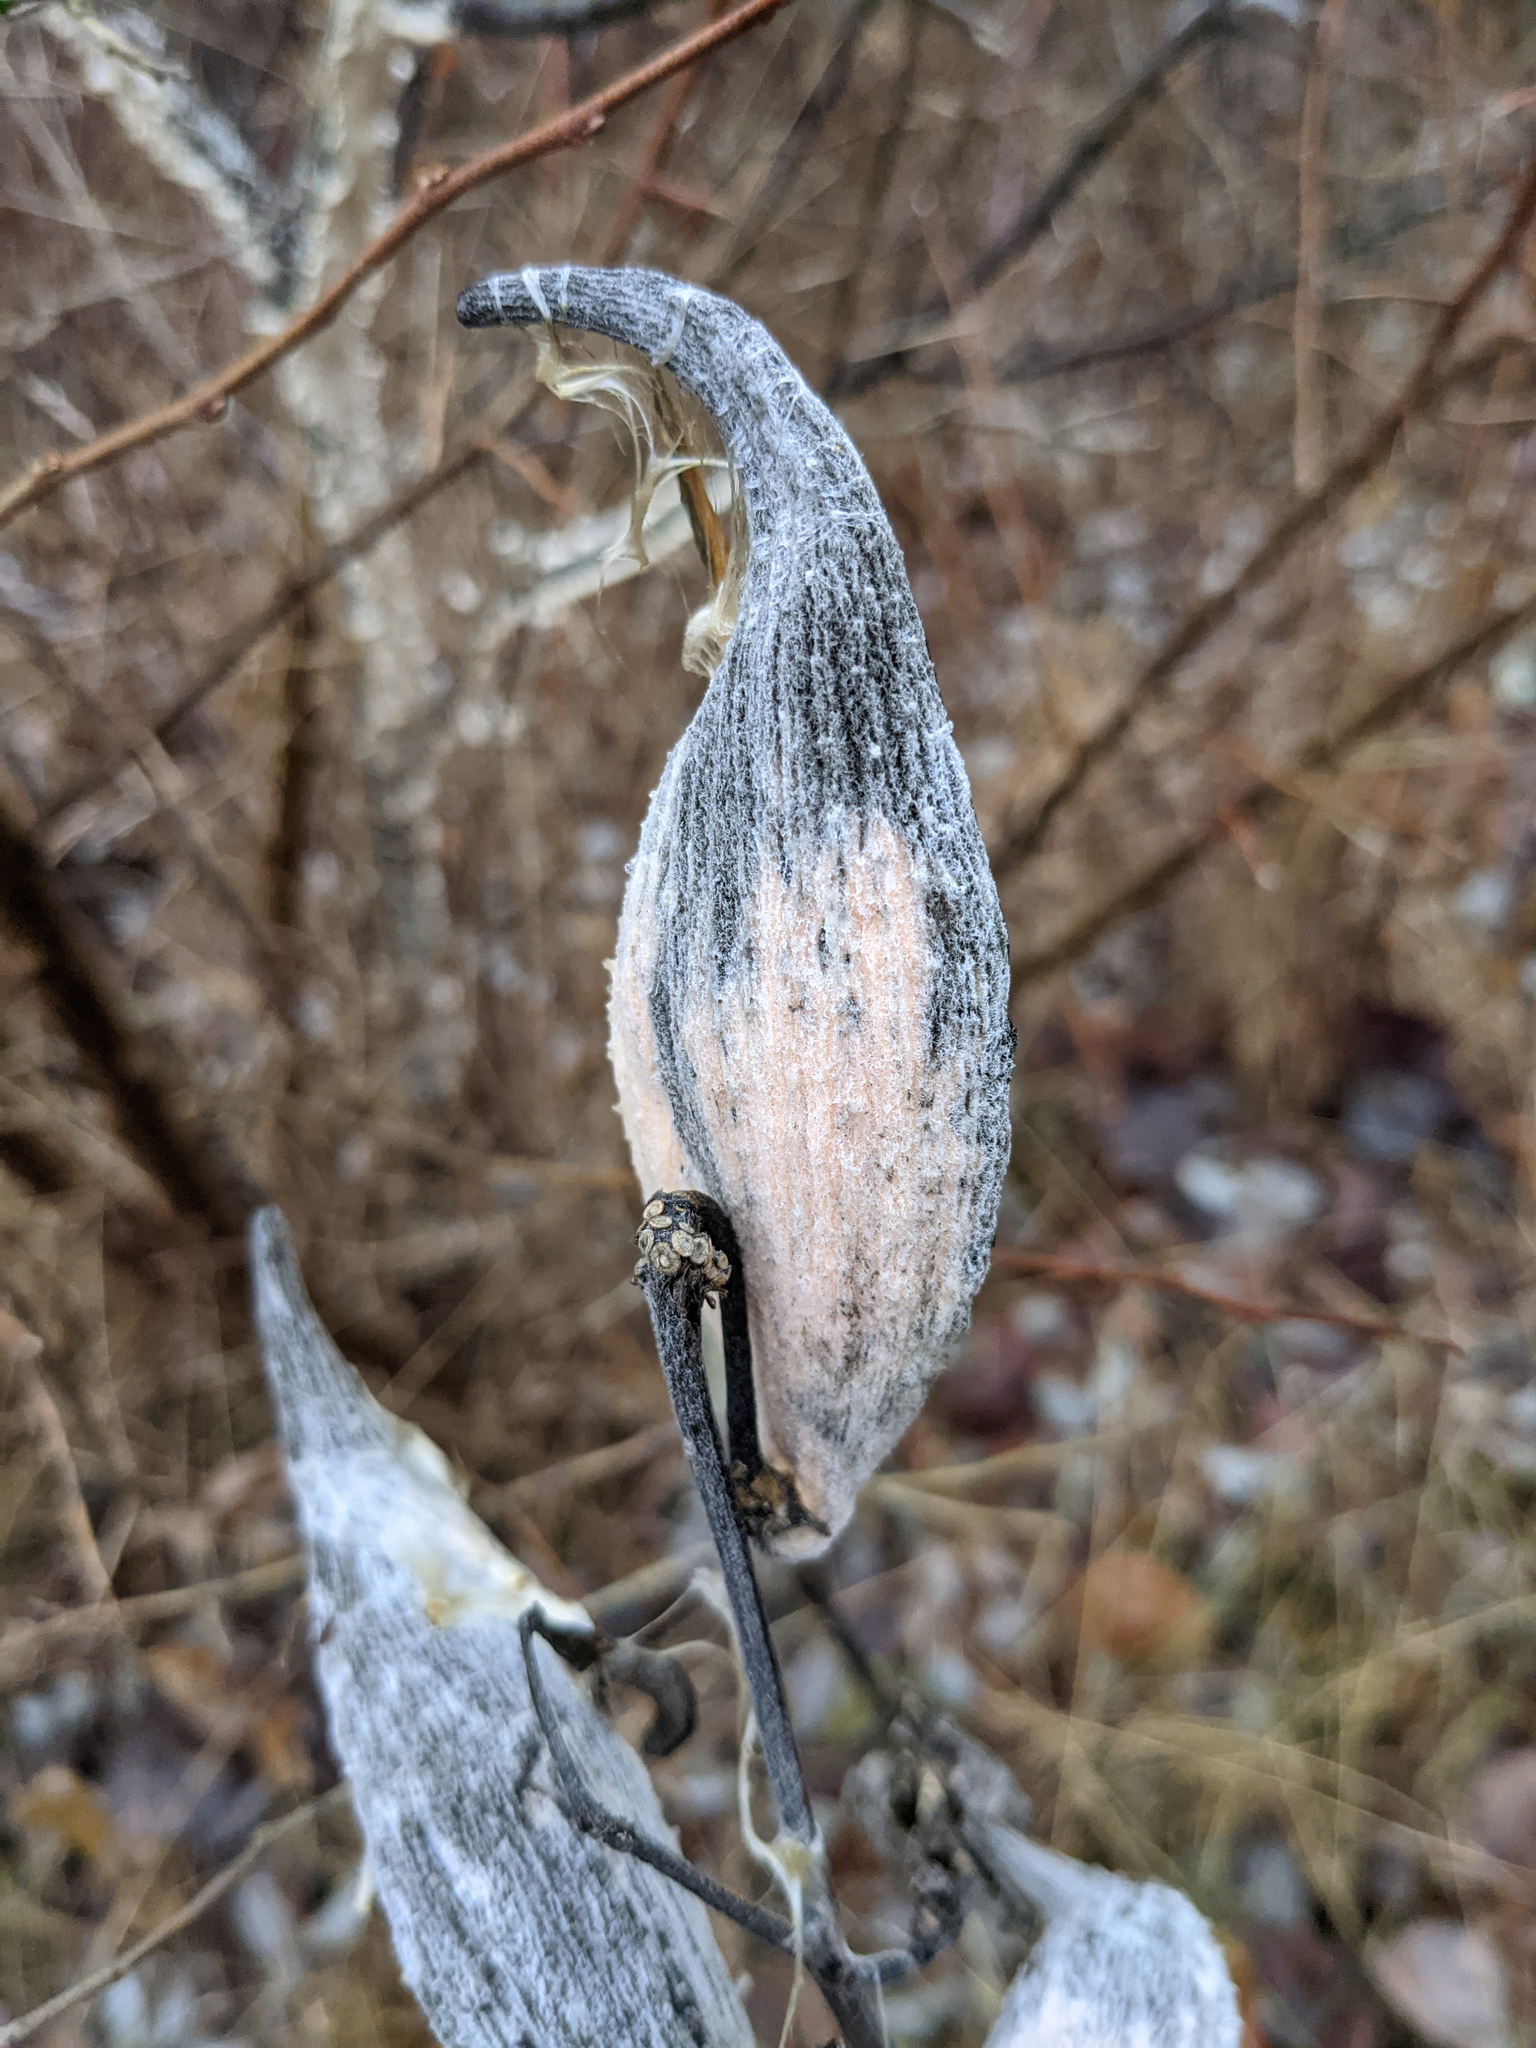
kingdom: Plantae
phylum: Tracheophyta
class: Magnoliopsida
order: Gentianales
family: Apocynaceae
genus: Asclepias
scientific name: Asclepias syriaca
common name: Common milkweed
